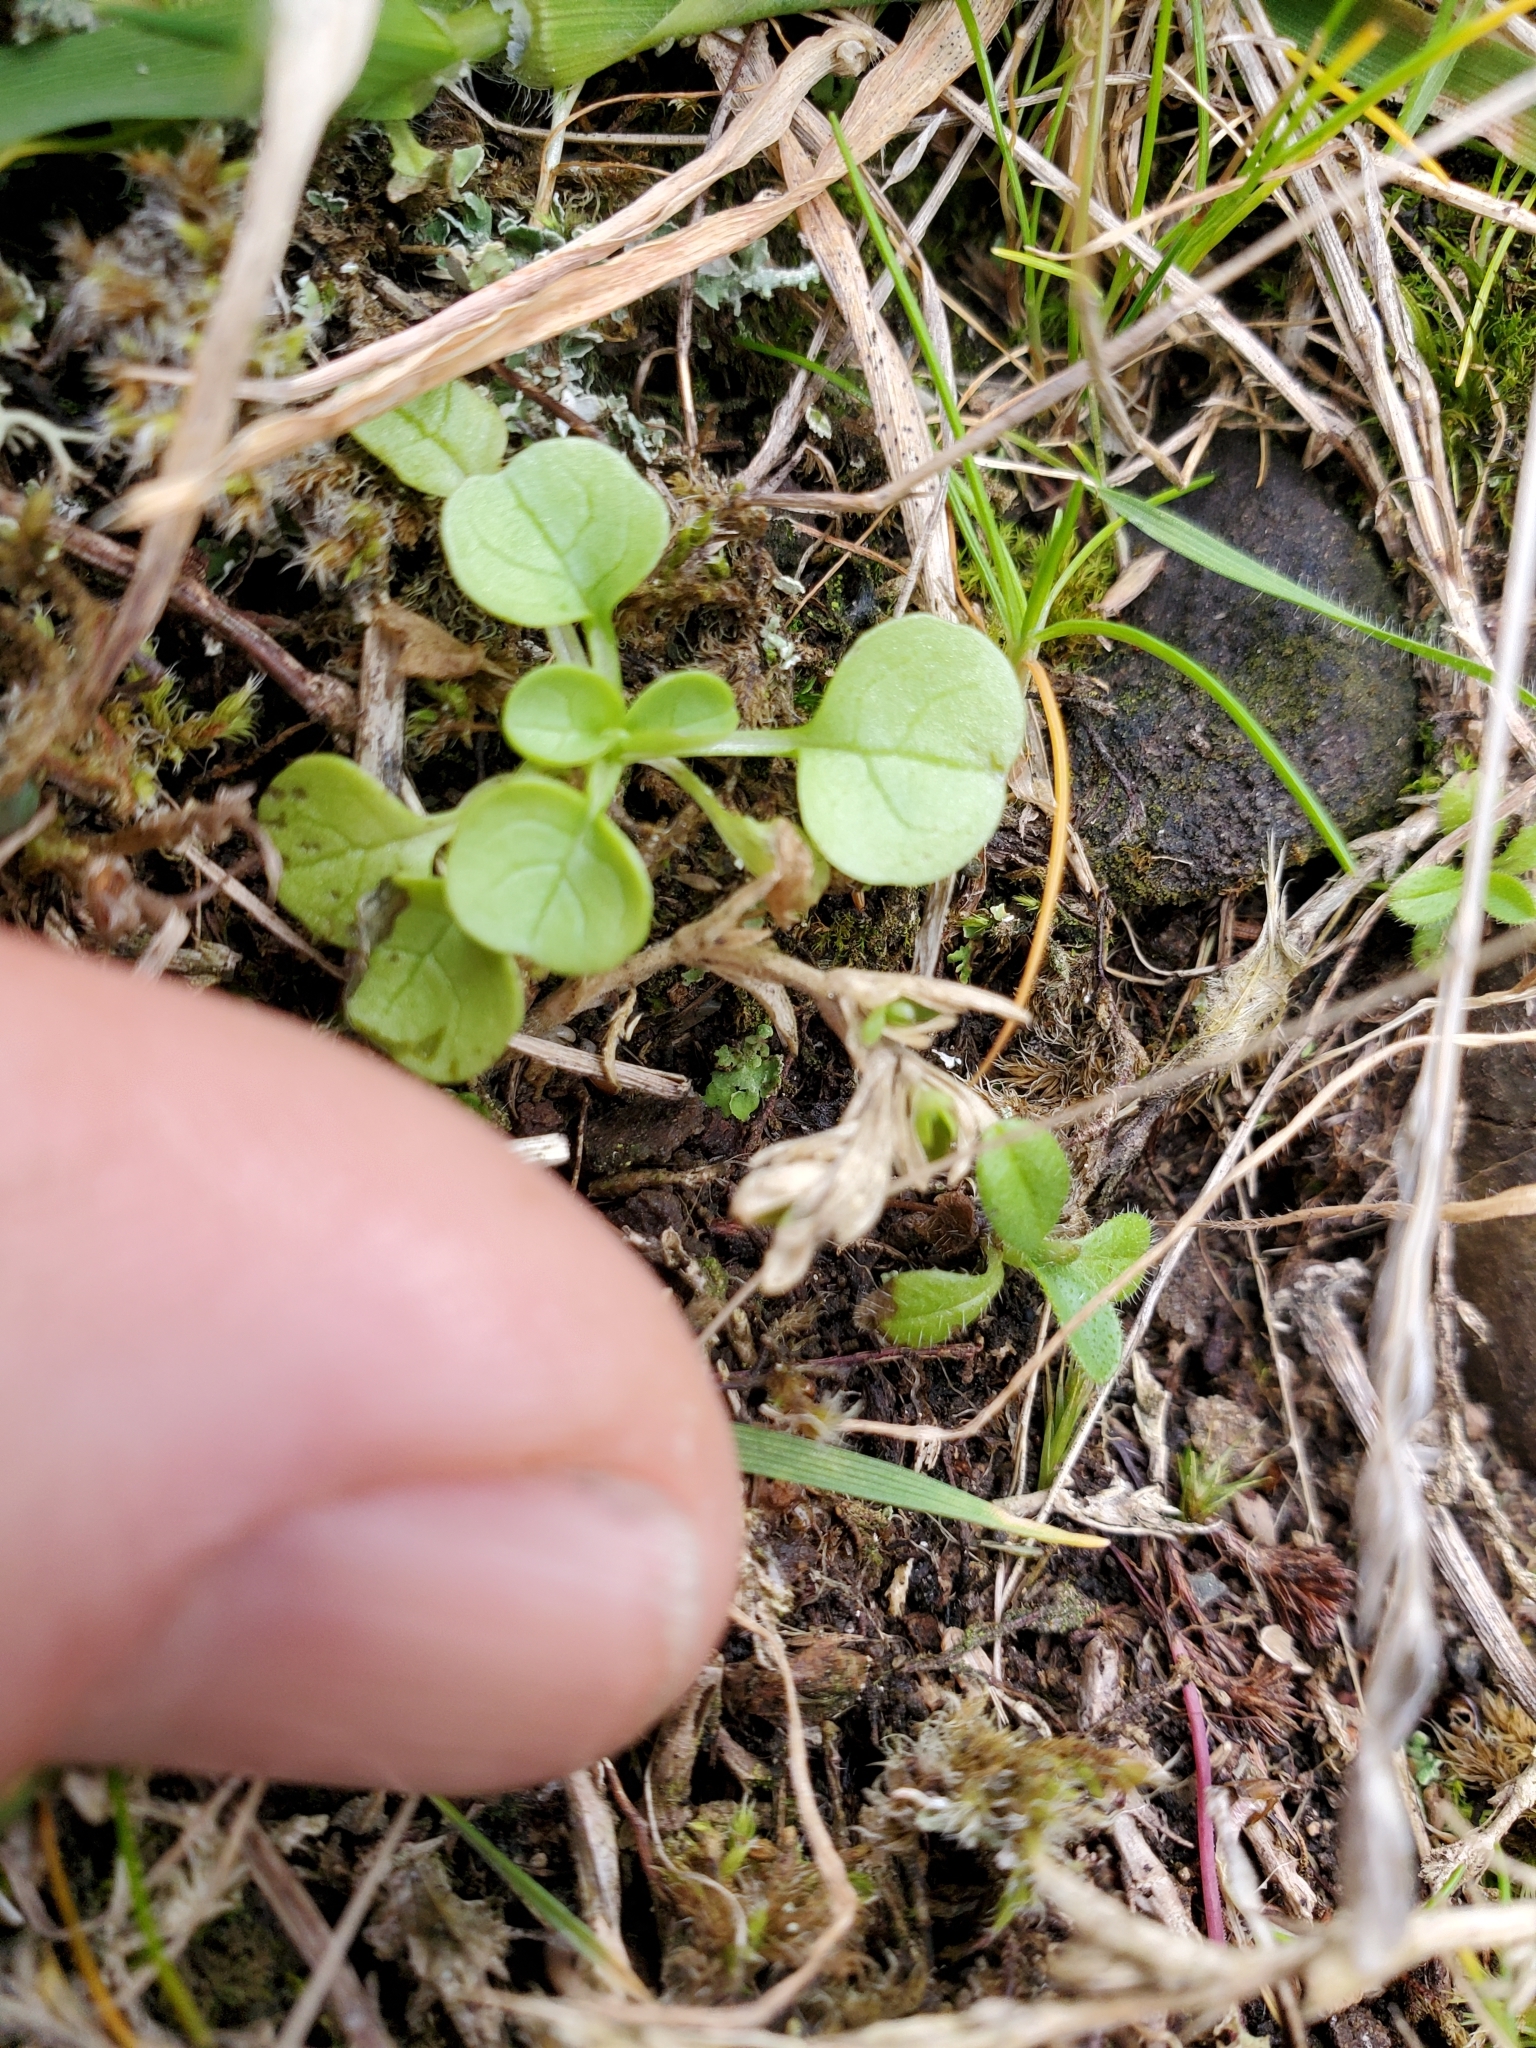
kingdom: Plantae
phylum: Tracheophyta
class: Magnoliopsida
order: Dipsacales
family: Caprifoliaceae
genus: Plectritis
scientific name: Plectritis congesta
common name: Pink plectritis
